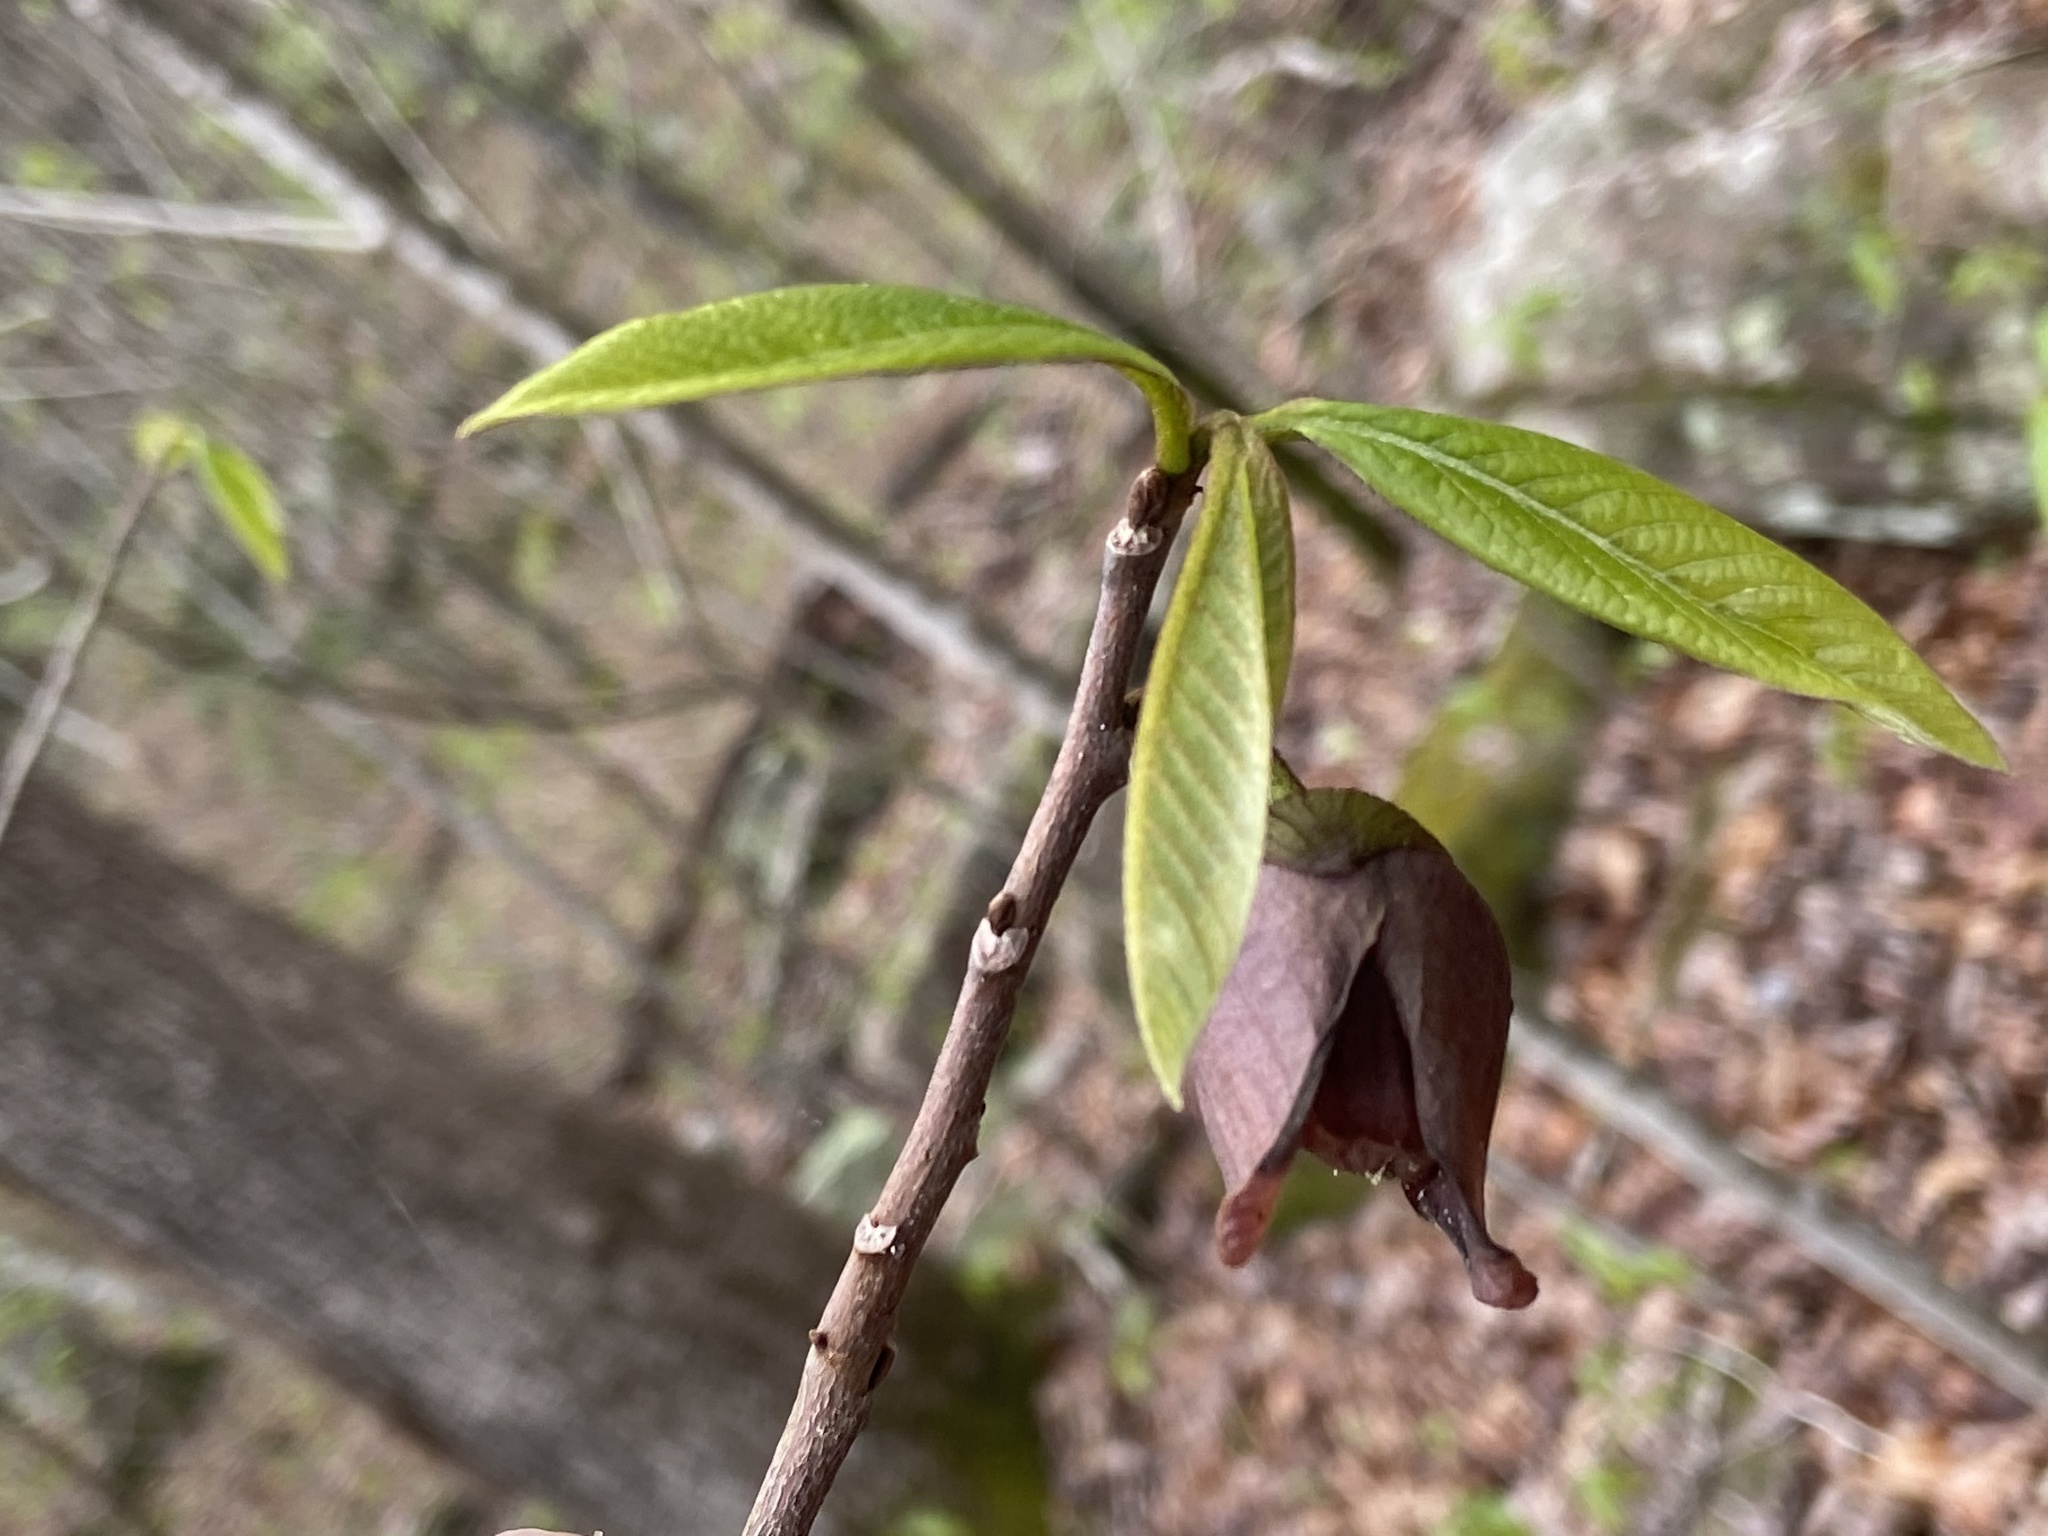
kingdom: Plantae
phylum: Tracheophyta
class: Magnoliopsida
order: Magnoliales
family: Annonaceae
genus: Asimina
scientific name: Asimina triloba
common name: Dog-banana
